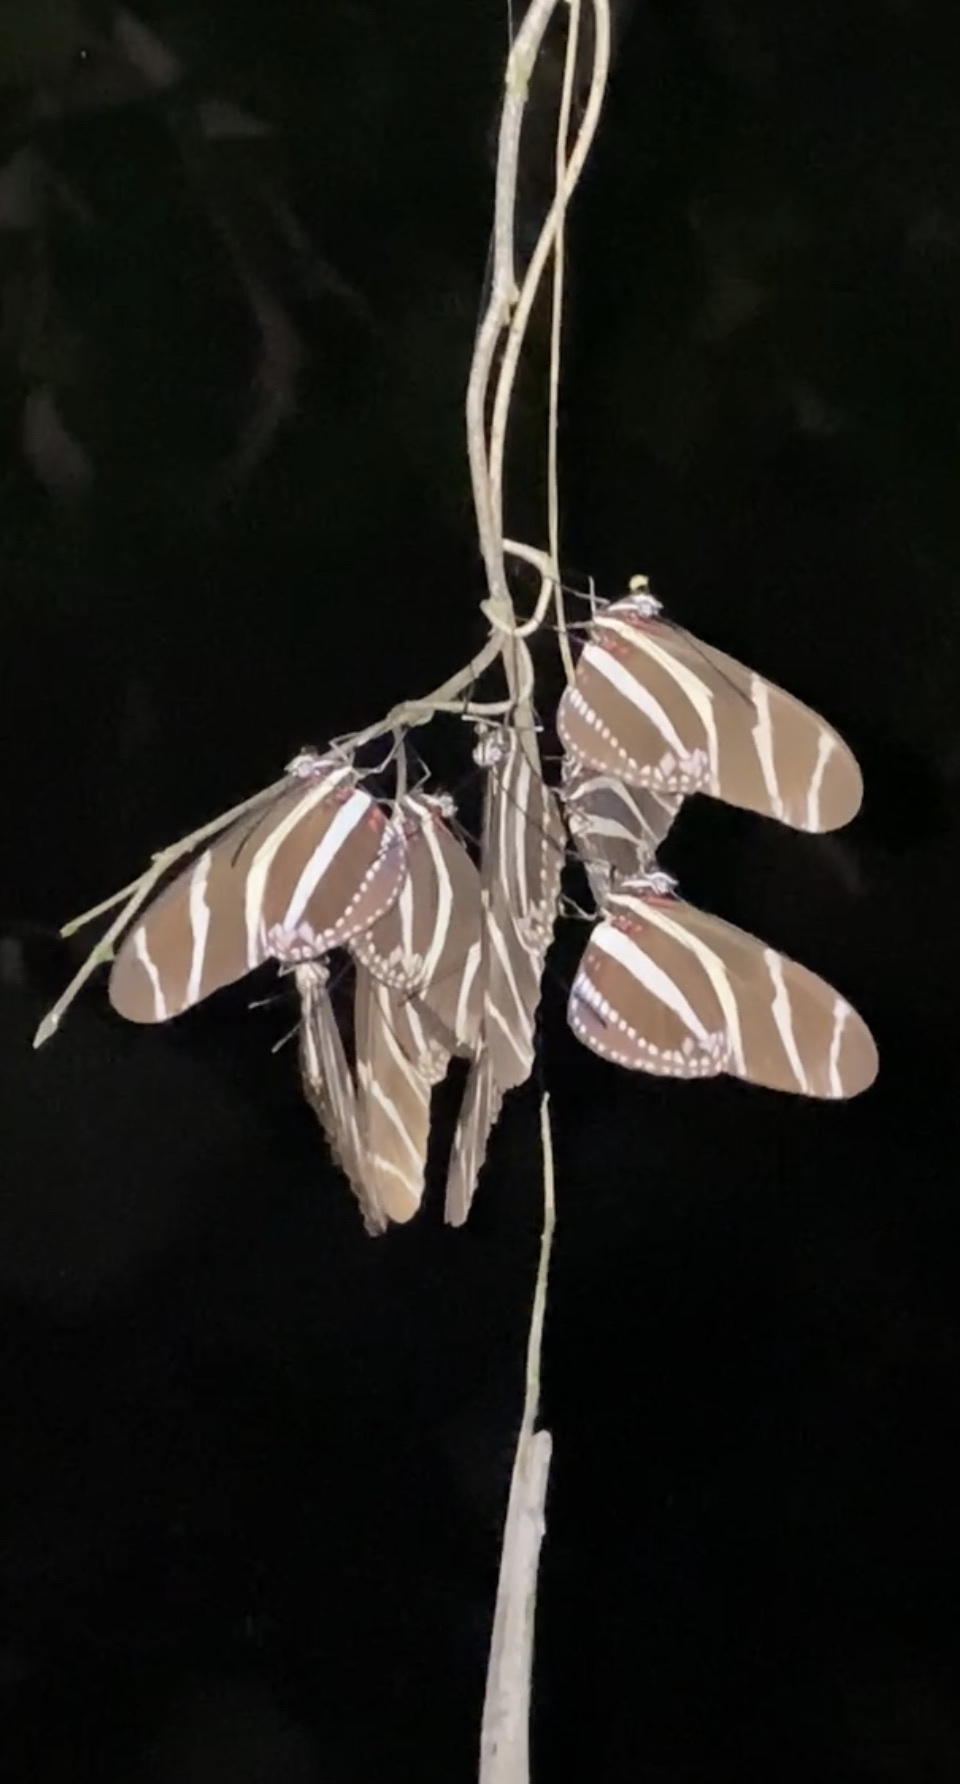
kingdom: Animalia
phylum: Arthropoda
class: Insecta
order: Lepidoptera
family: Nymphalidae
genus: Heliconius
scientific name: Heliconius charithonia
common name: Zebra long wing
